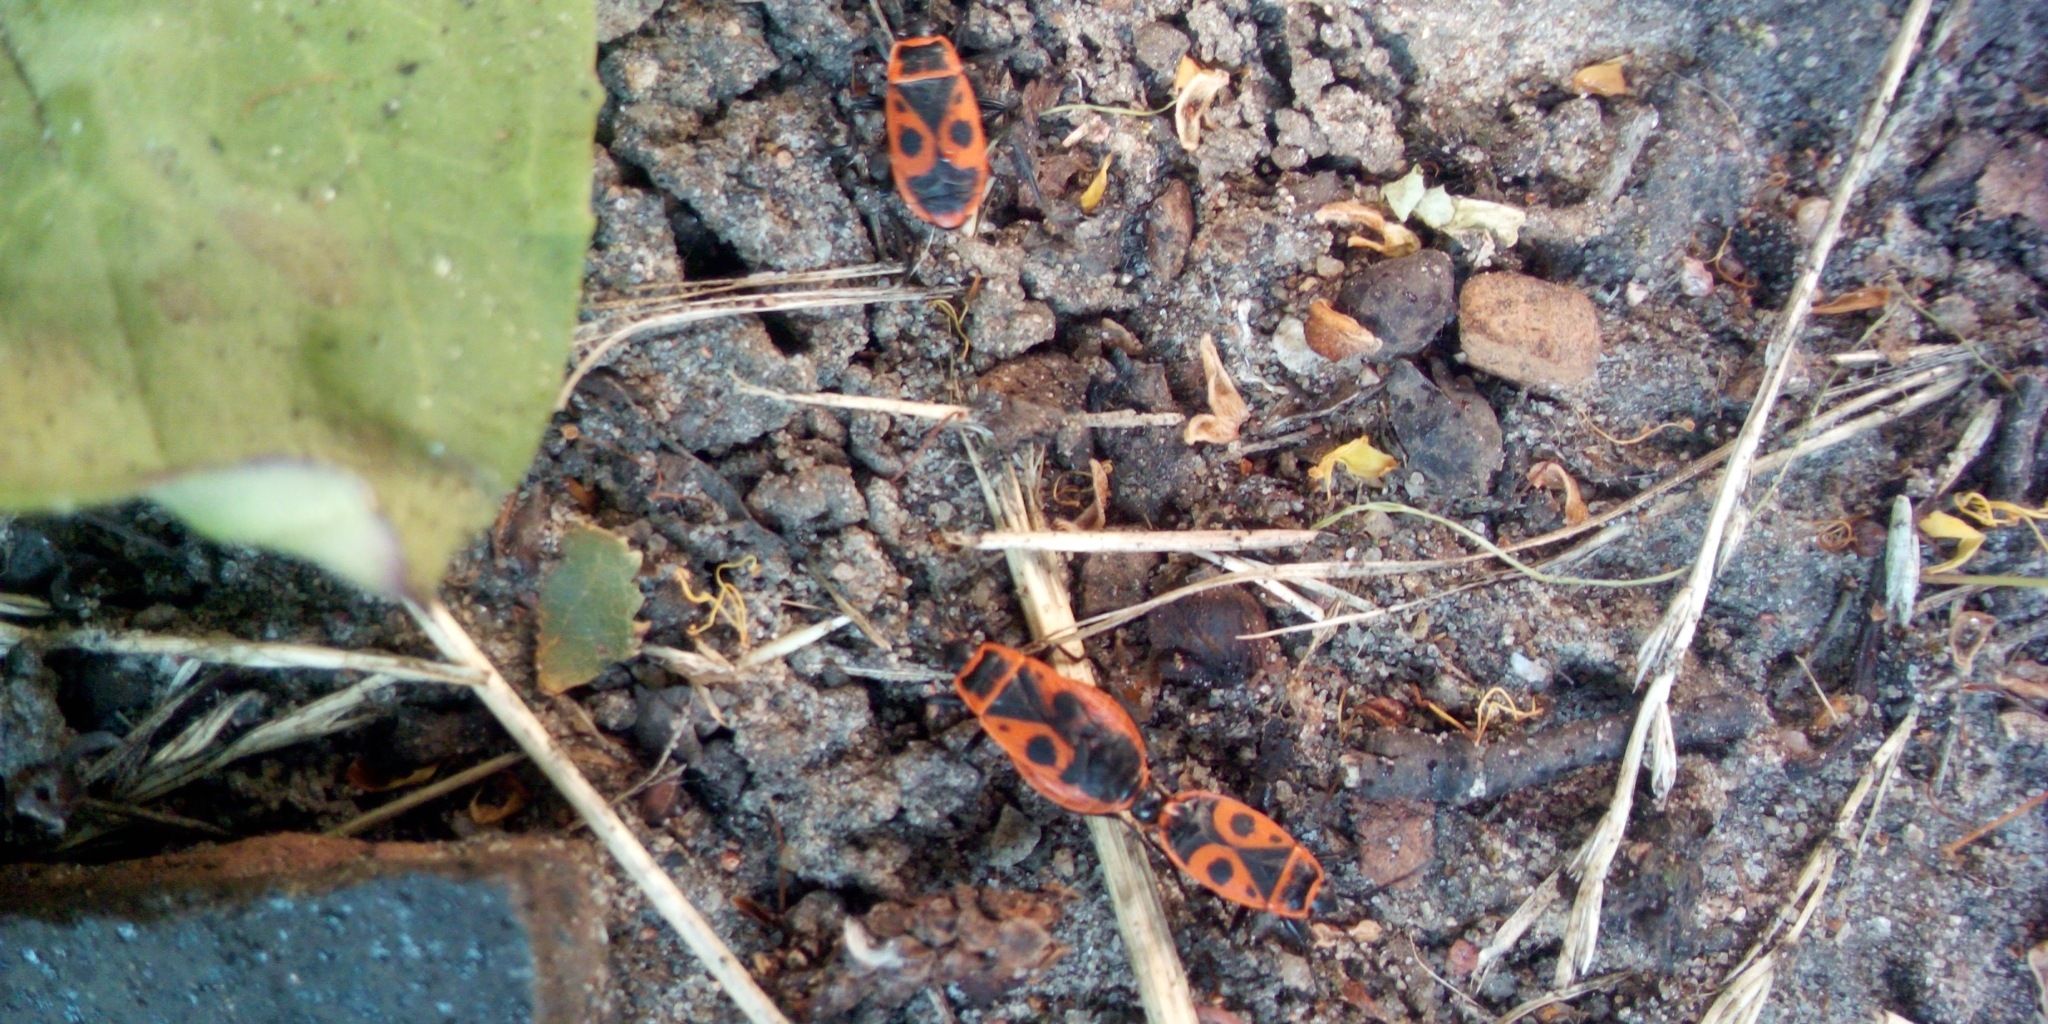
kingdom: Animalia
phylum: Arthropoda
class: Insecta
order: Hemiptera
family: Pyrrhocoridae
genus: Pyrrhocoris
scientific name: Pyrrhocoris apterus
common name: Firebug
